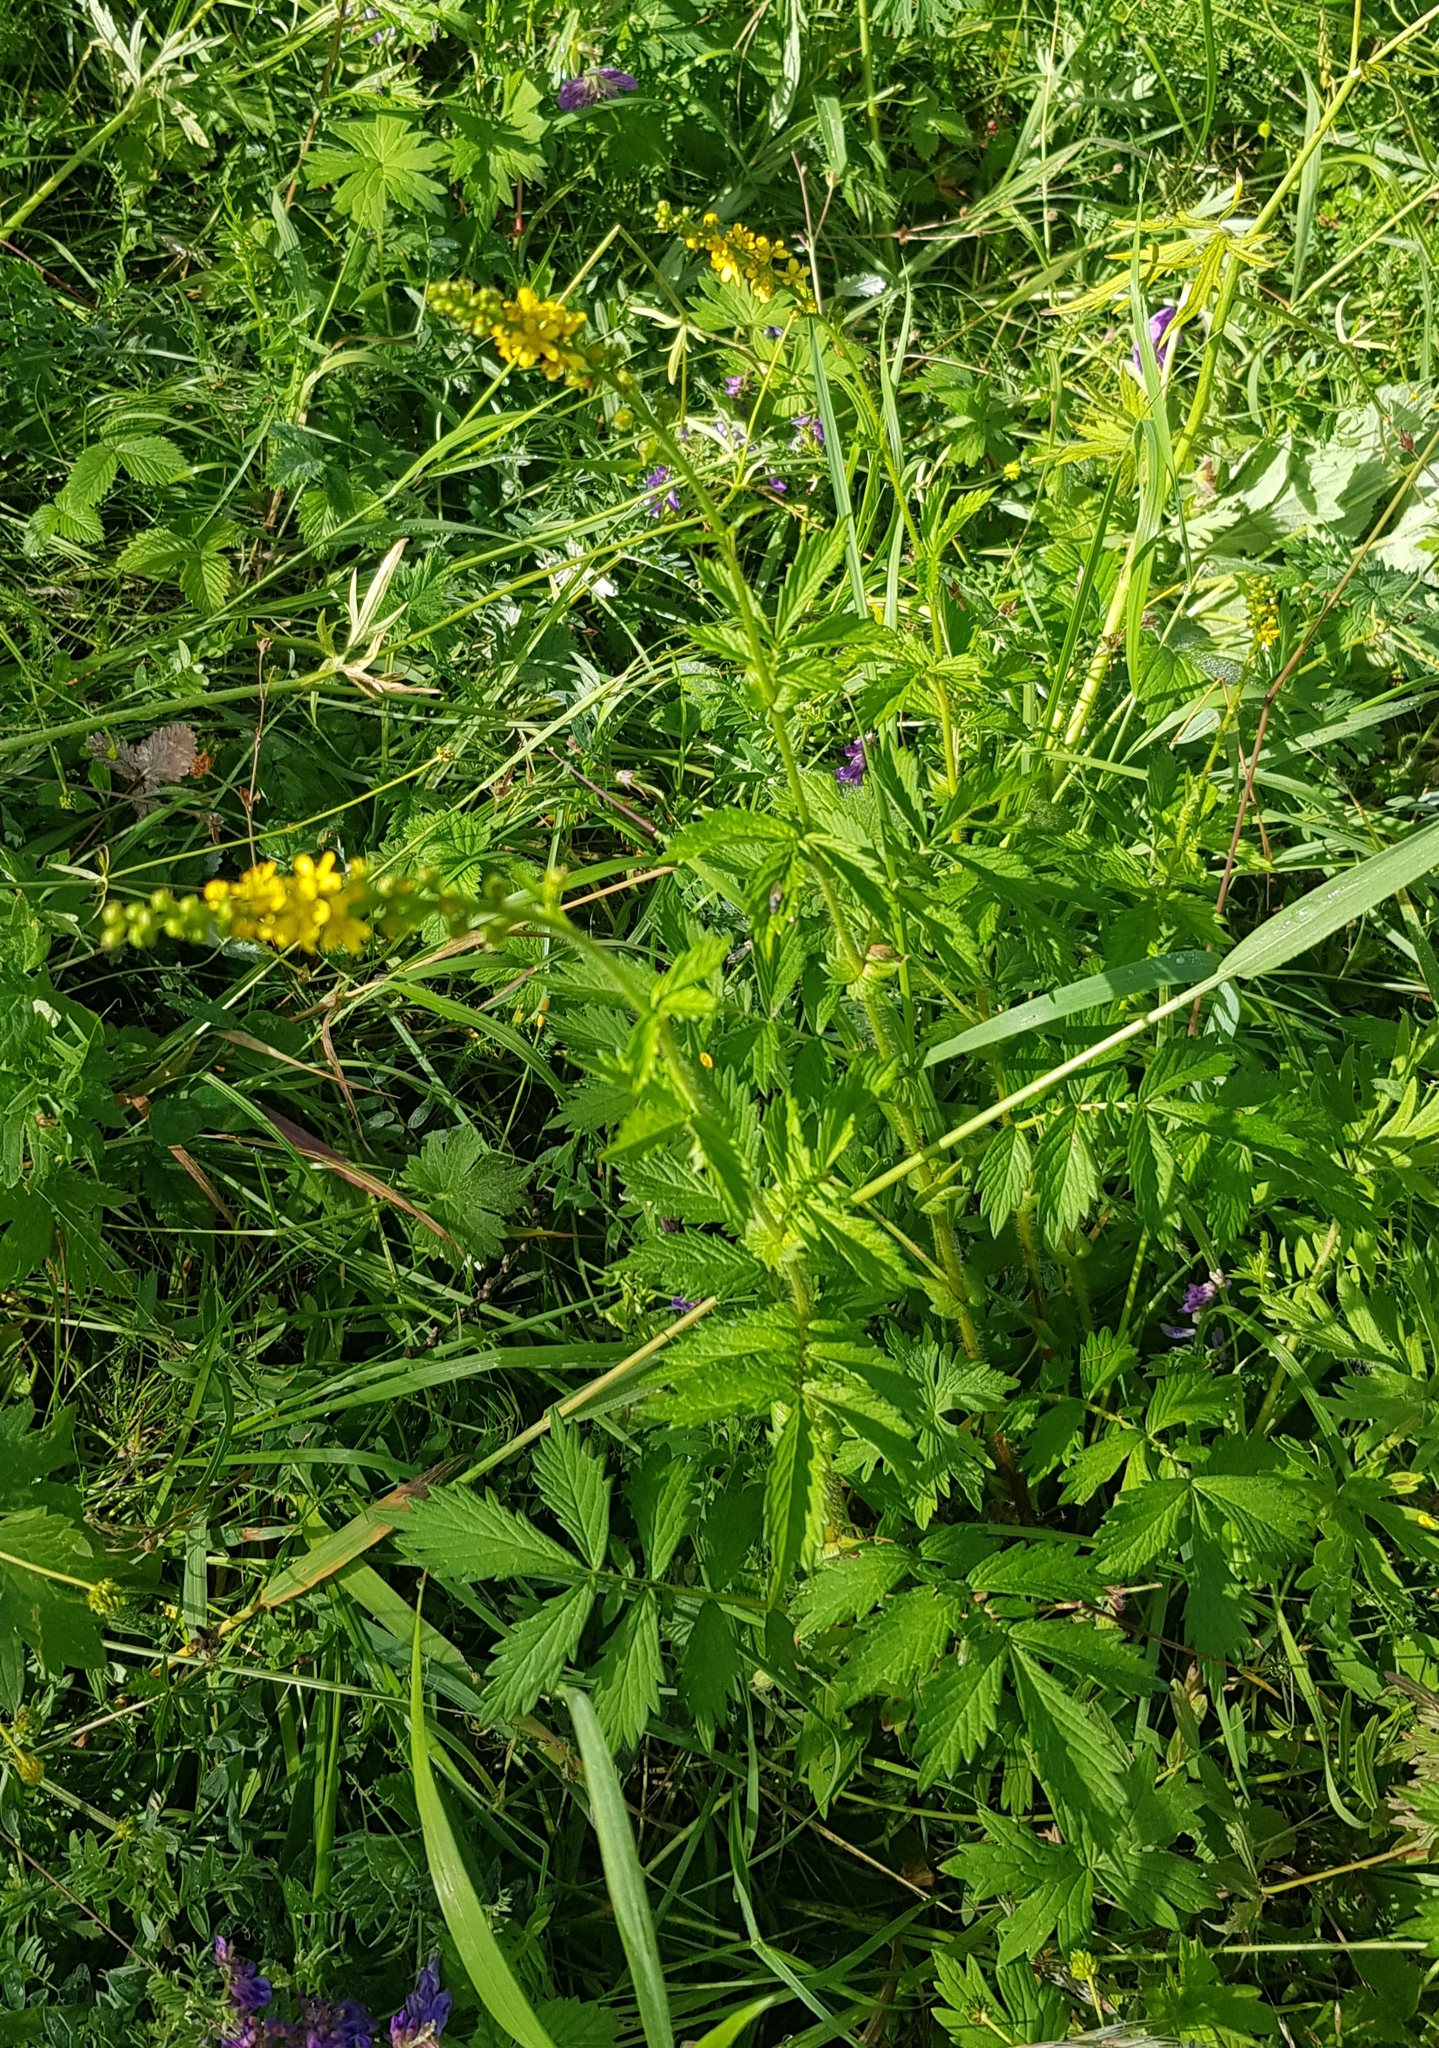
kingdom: Plantae
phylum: Tracheophyta
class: Magnoliopsida
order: Rosales
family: Rosaceae
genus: Agrimonia
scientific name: Agrimonia pilosa
